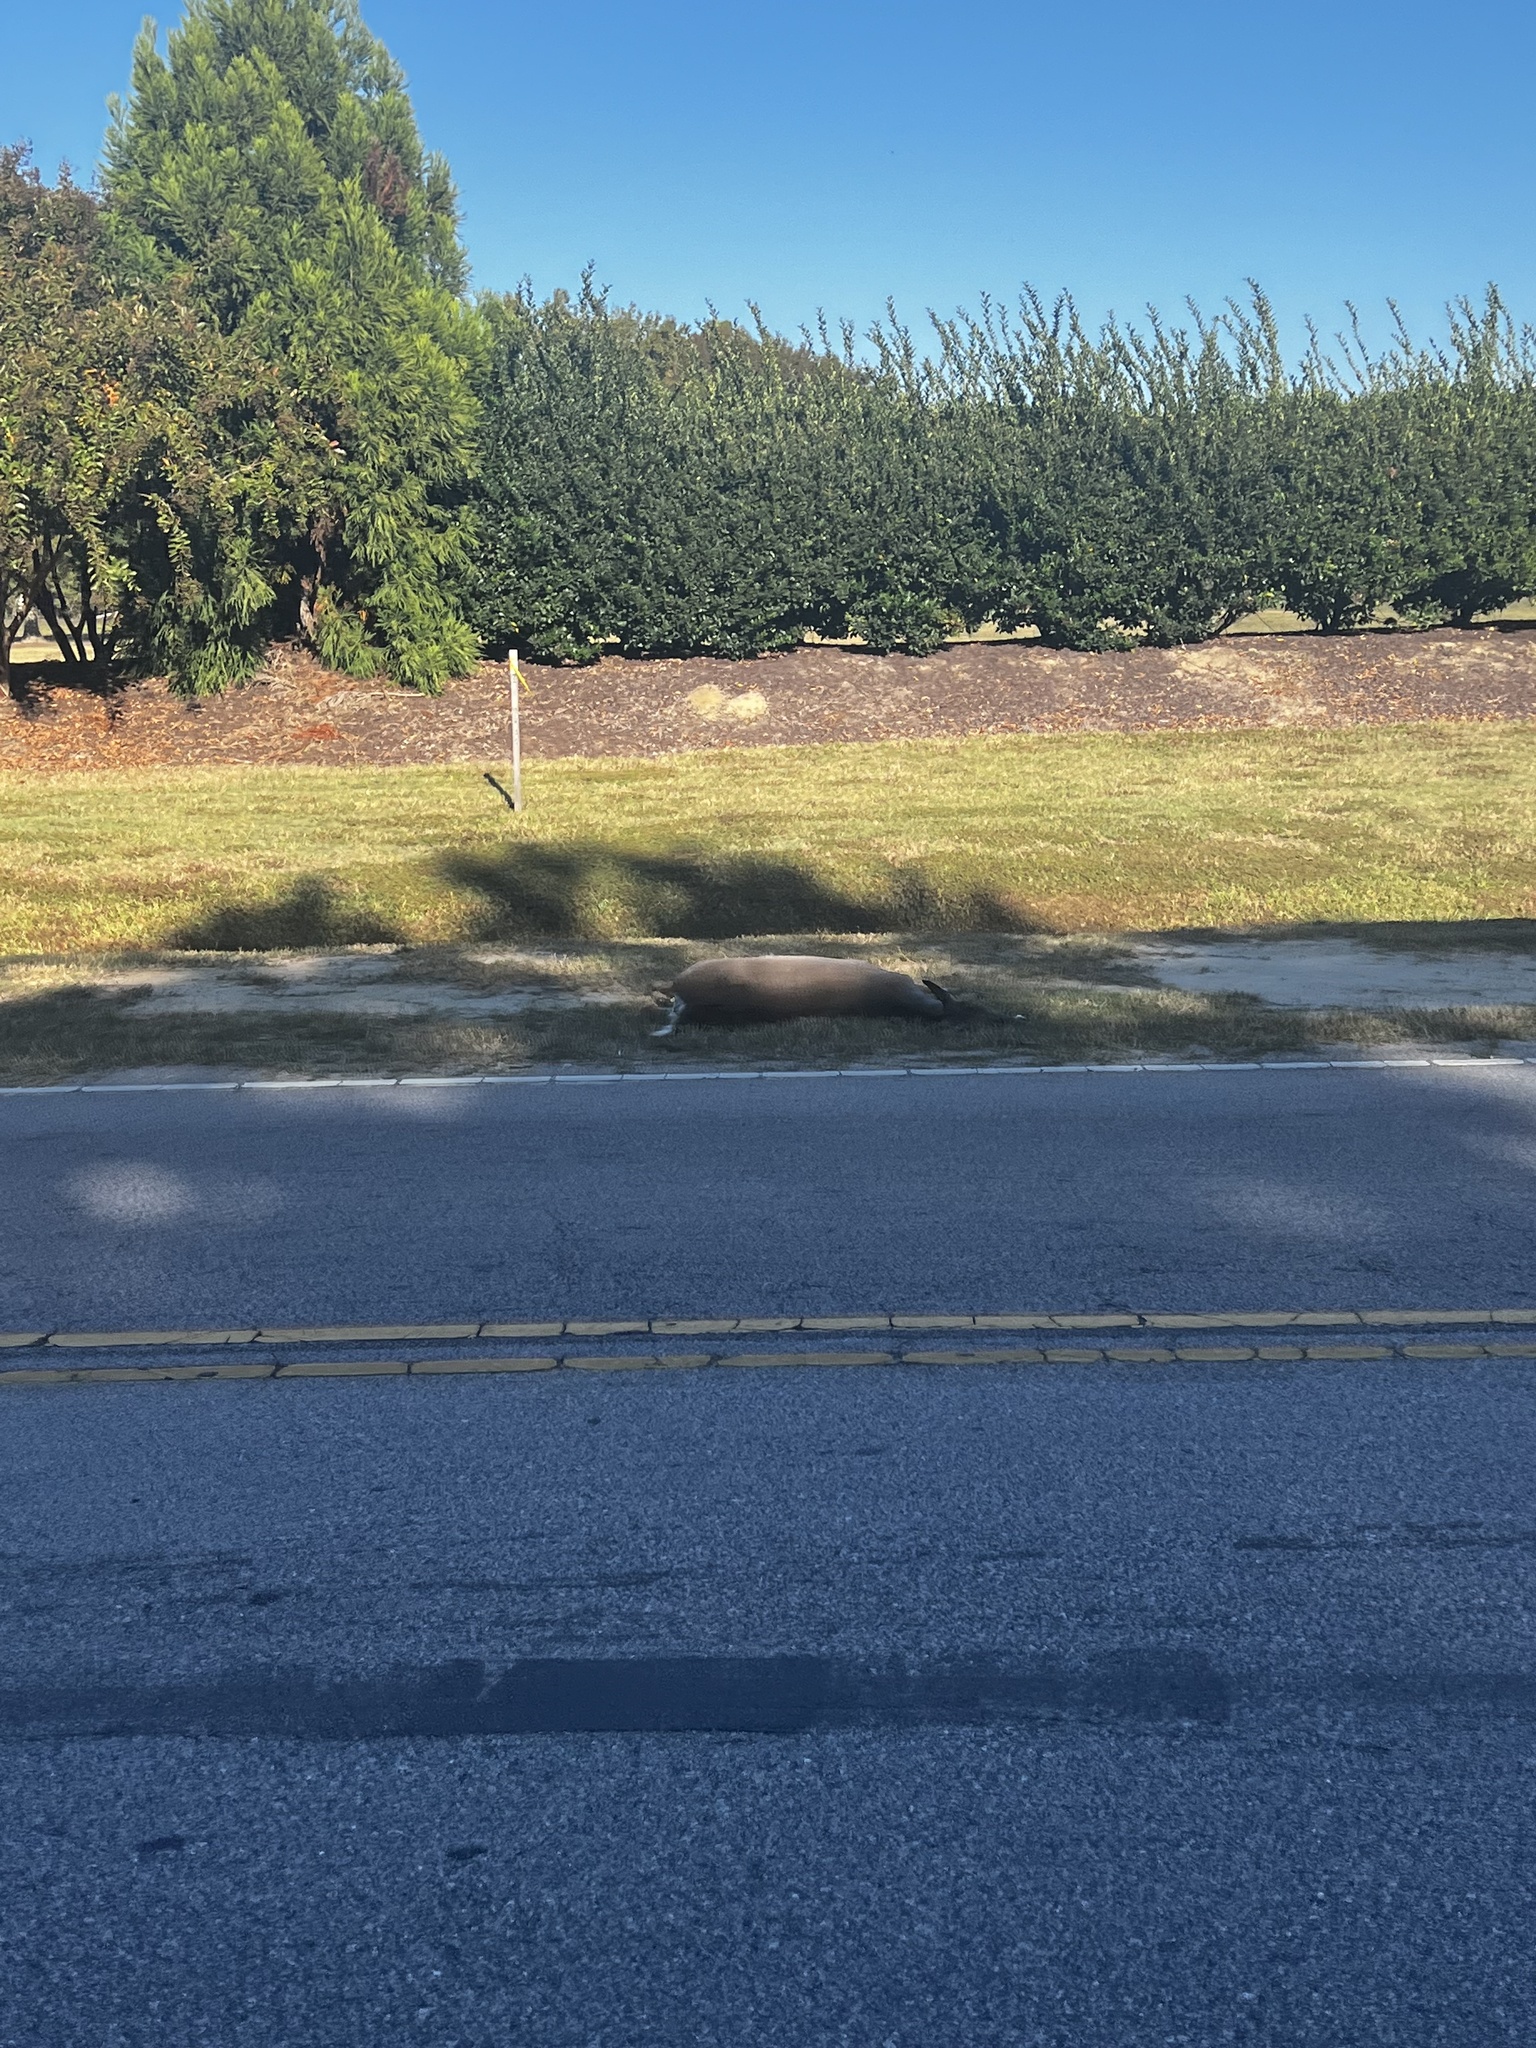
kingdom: Animalia
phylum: Chordata
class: Mammalia
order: Artiodactyla
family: Cervidae
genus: Odocoileus
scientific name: Odocoileus virginianus
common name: White-tailed deer
